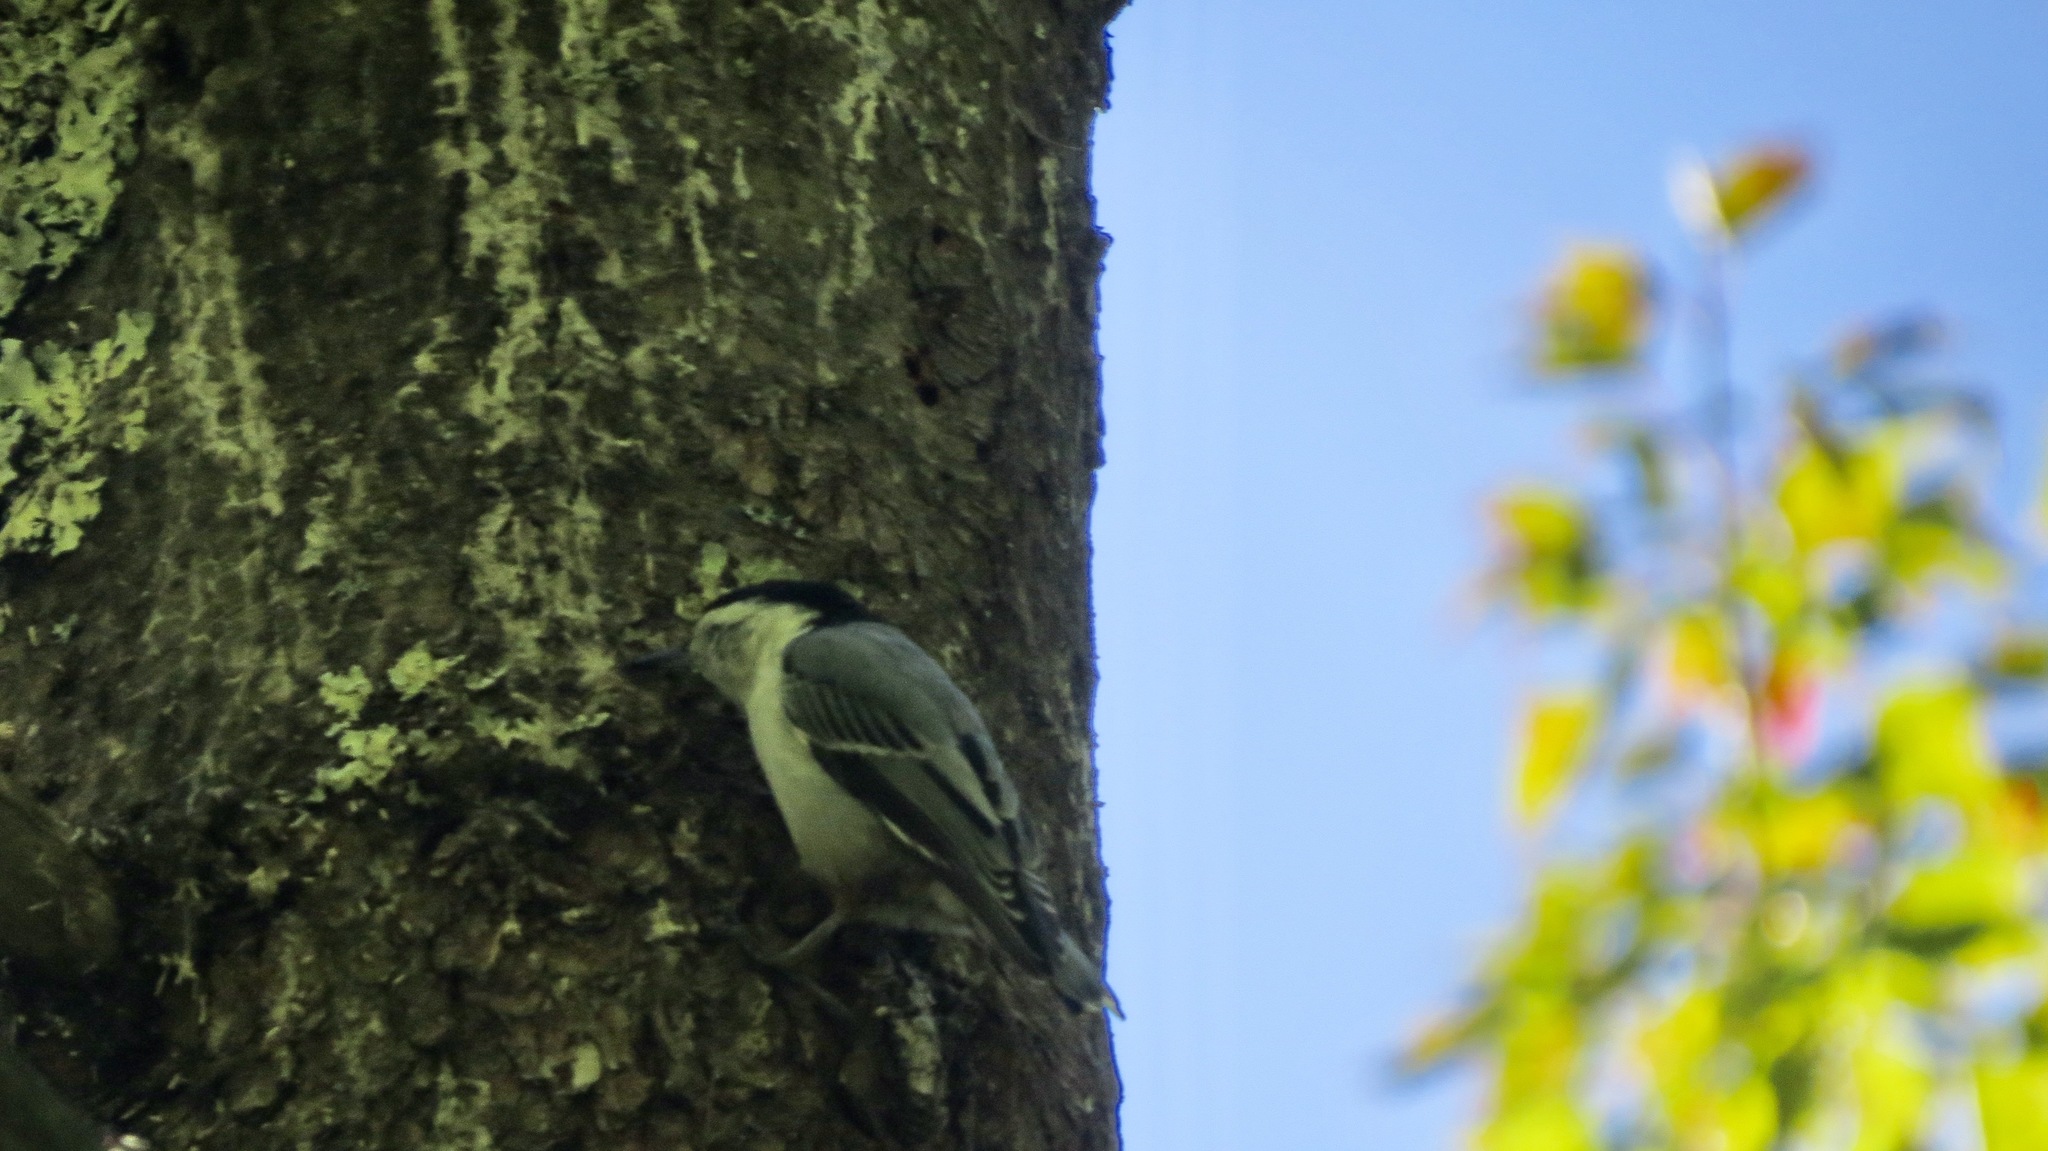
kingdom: Animalia
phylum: Chordata
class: Aves
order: Passeriformes
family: Sittidae
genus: Sitta
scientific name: Sitta carolinensis
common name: White-breasted nuthatch
